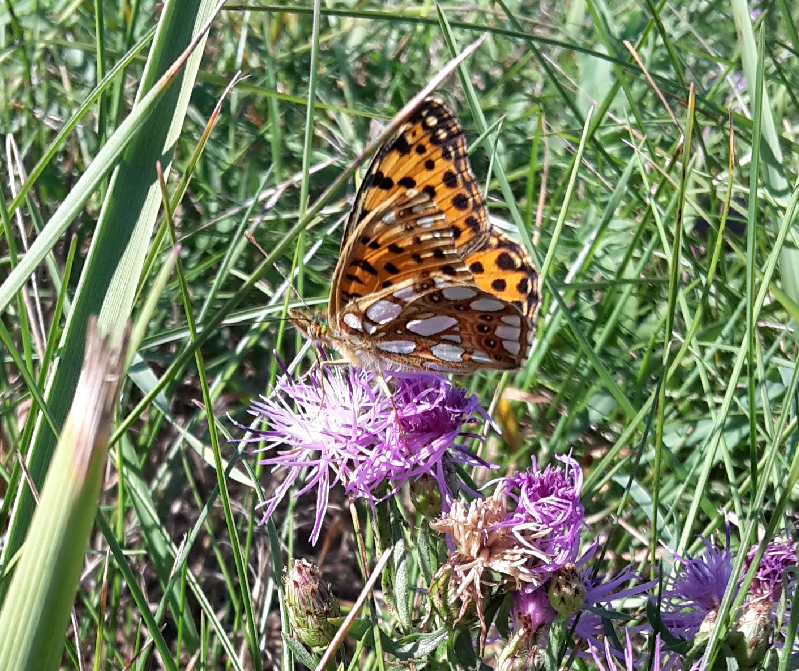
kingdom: Animalia
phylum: Arthropoda
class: Insecta
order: Lepidoptera
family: Nymphalidae
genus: Issoria
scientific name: Issoria lathonia
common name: Queen of spain fritillary
